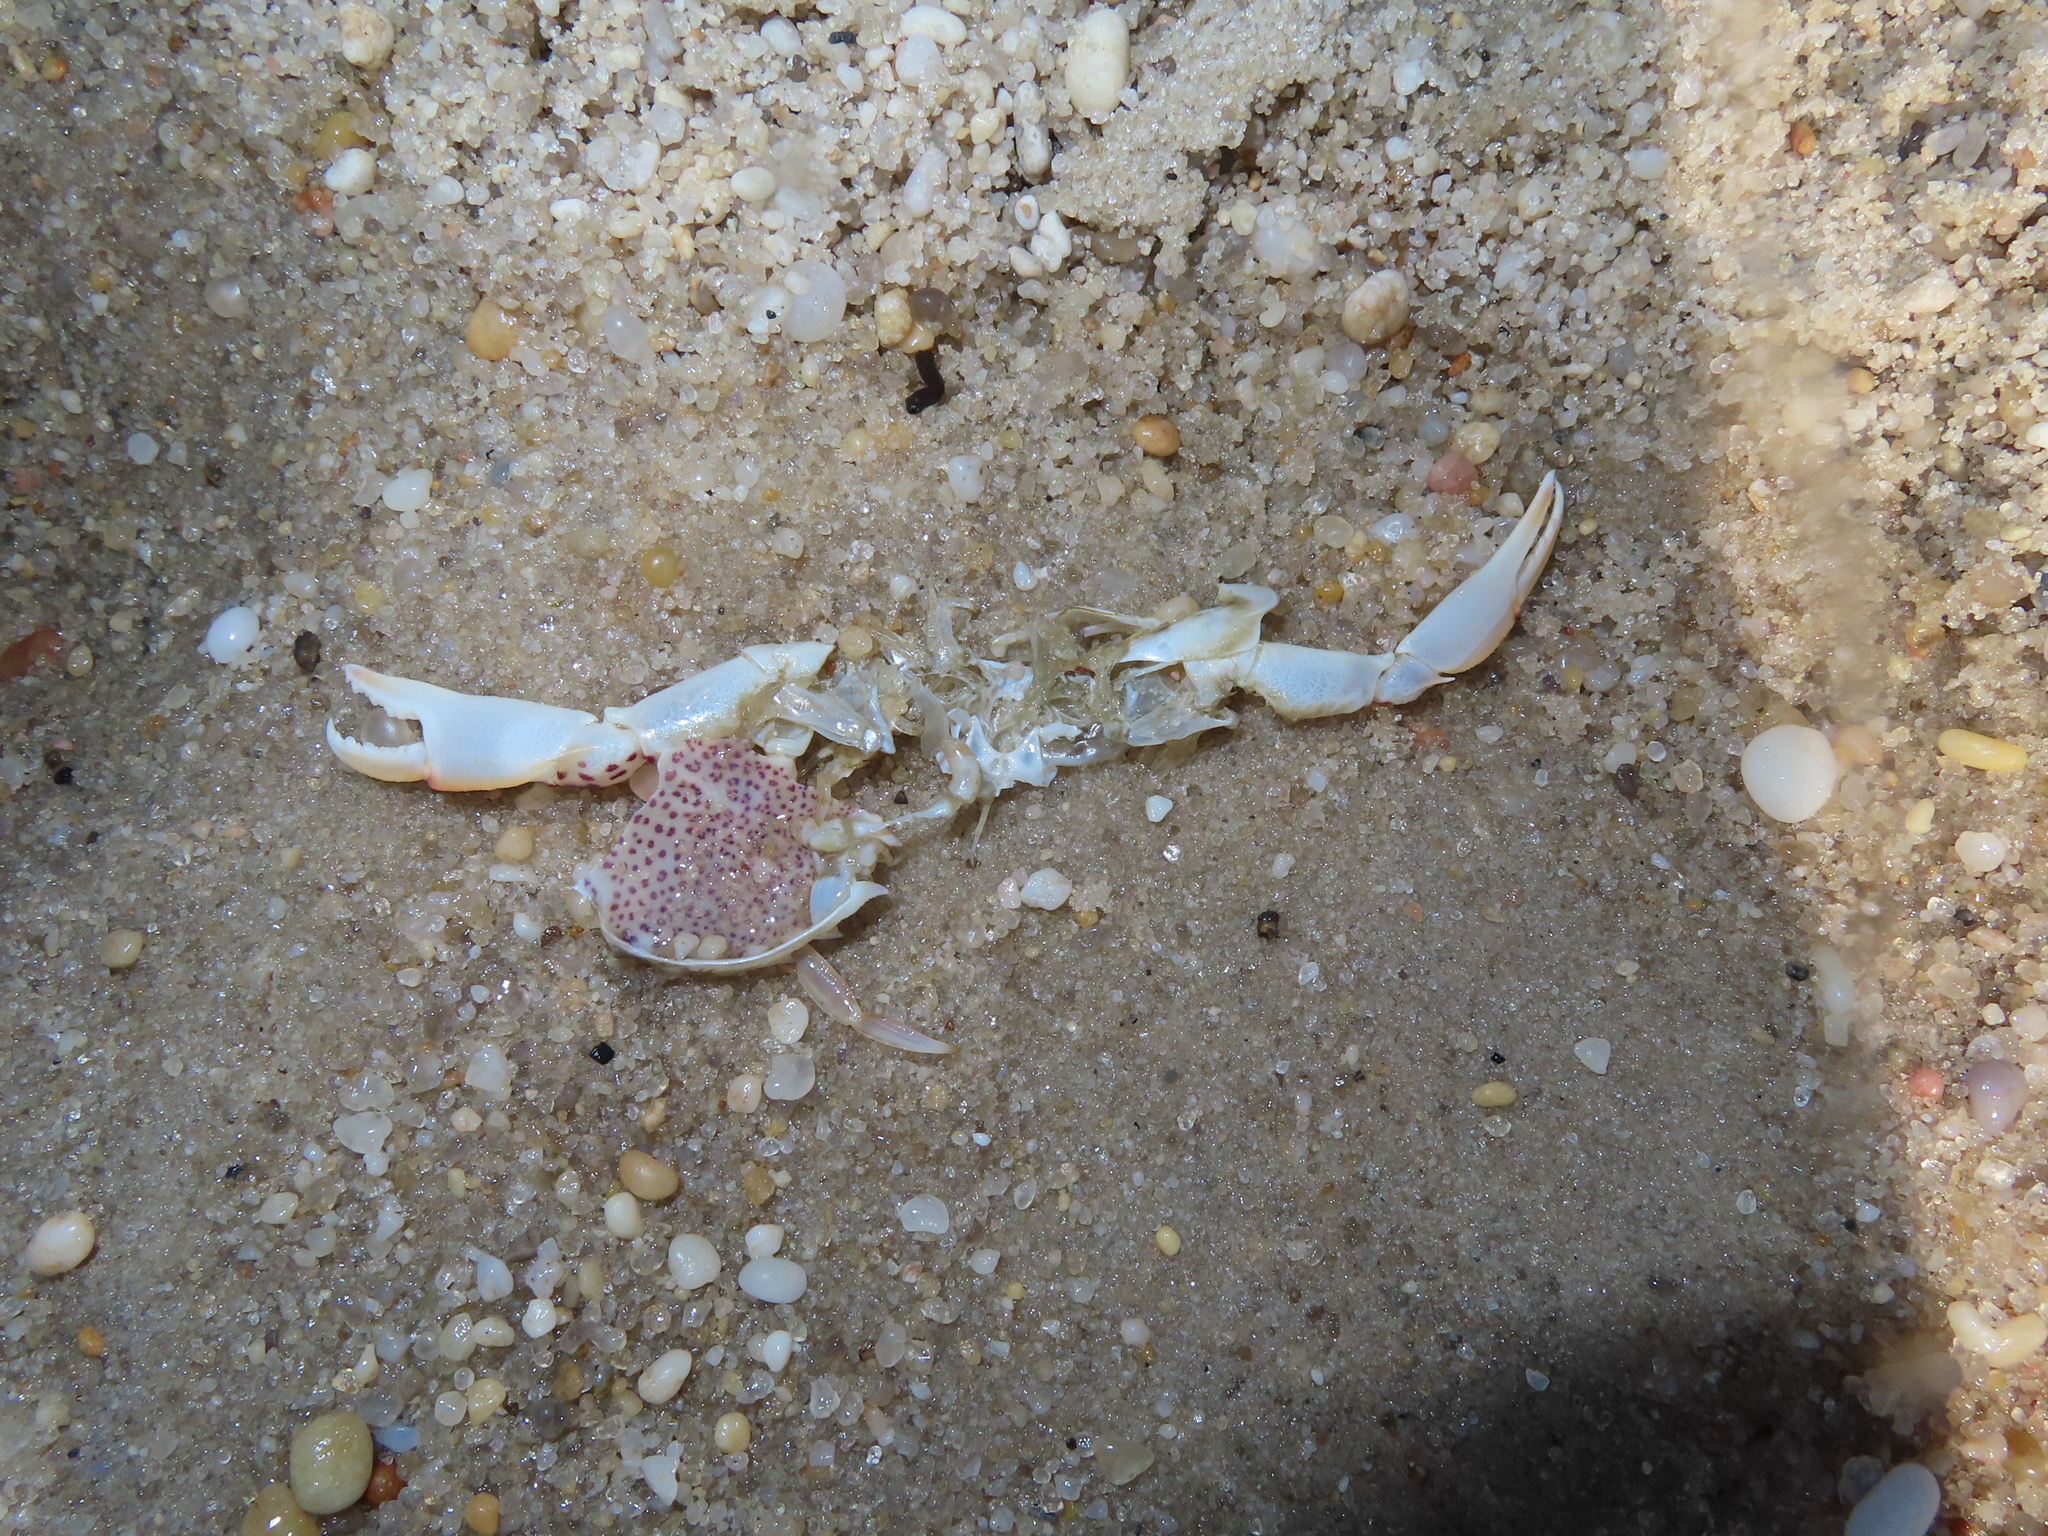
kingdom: Animalia
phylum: Arthropoda
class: Malacostraca
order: Decapoda
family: Ovalipidae
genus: Ovalipes
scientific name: Ovalipes ocellatus
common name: Lady crab
